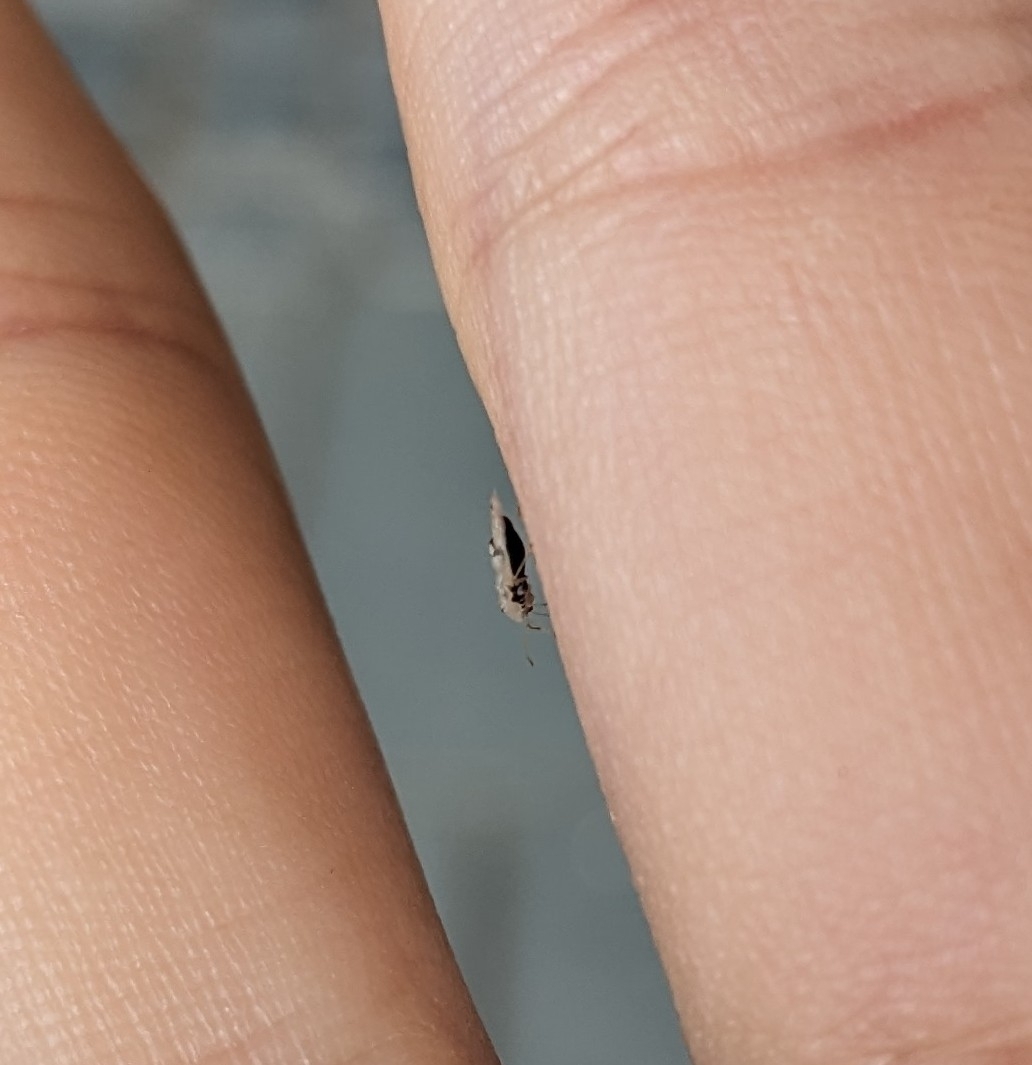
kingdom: Animalia
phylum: Arthropoda
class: Insecta
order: Hemiptera
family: Tingidae
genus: Corythucha
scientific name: Corythucha ciliata
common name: Sycamore lace bug
